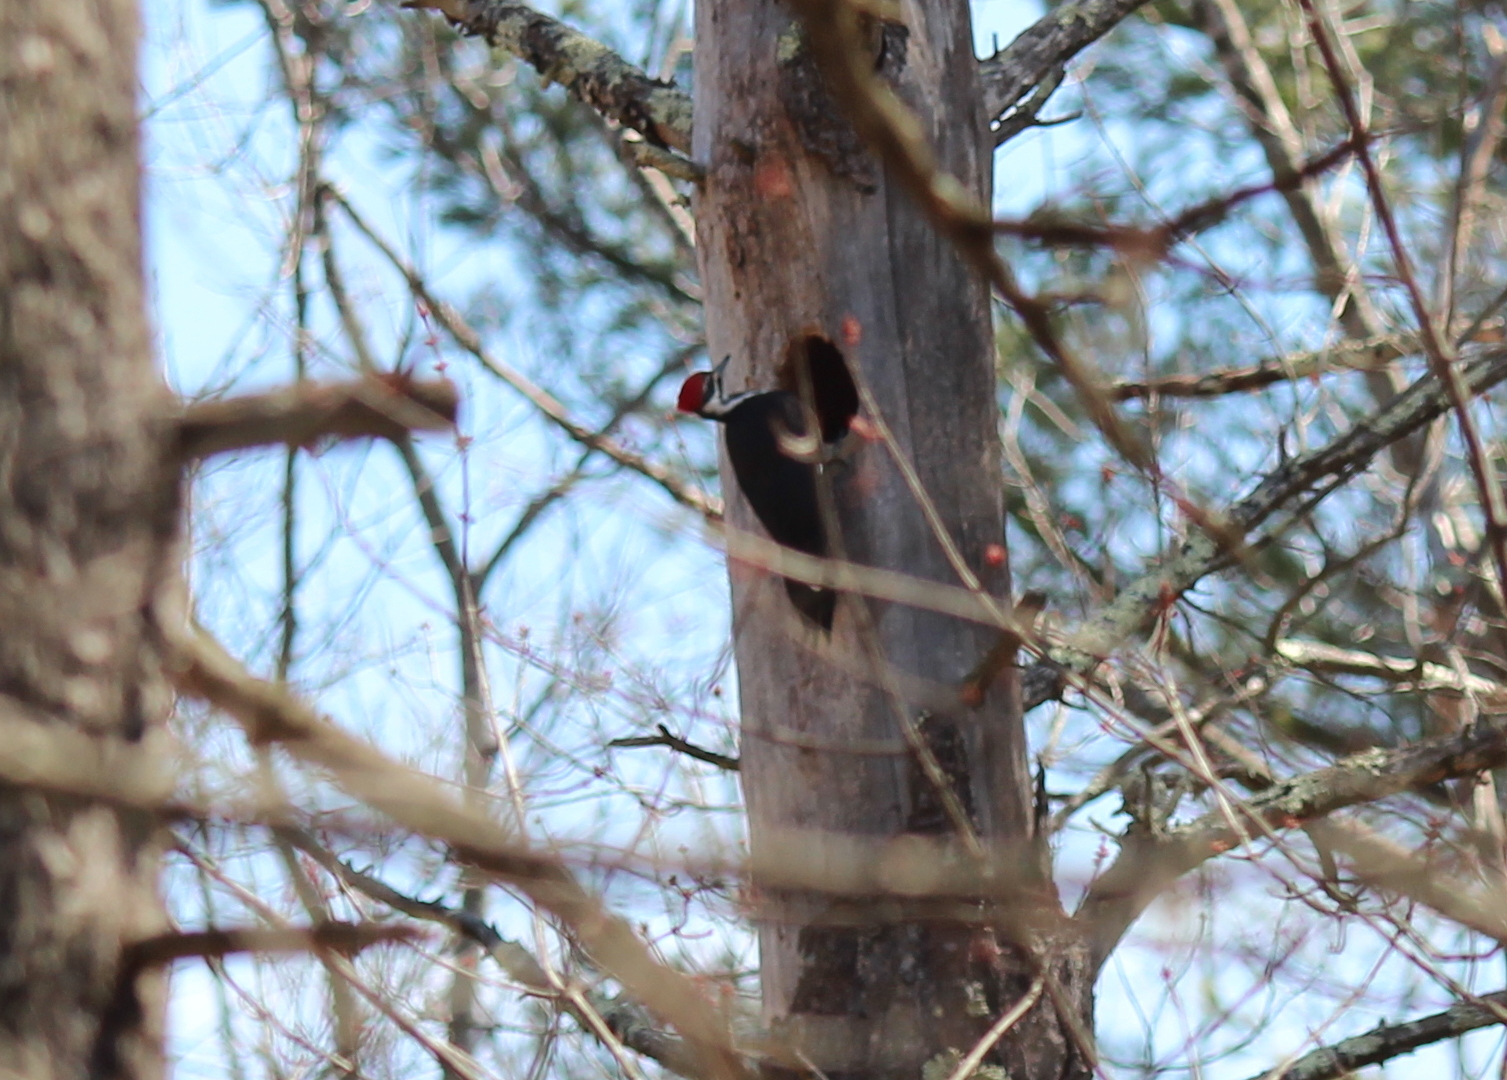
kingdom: Animalia
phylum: Chordata
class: Aves
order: Piciformes
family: Picidae
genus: Dryocopus
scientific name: Dryocopus pileatus
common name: Pileated woodpecker
